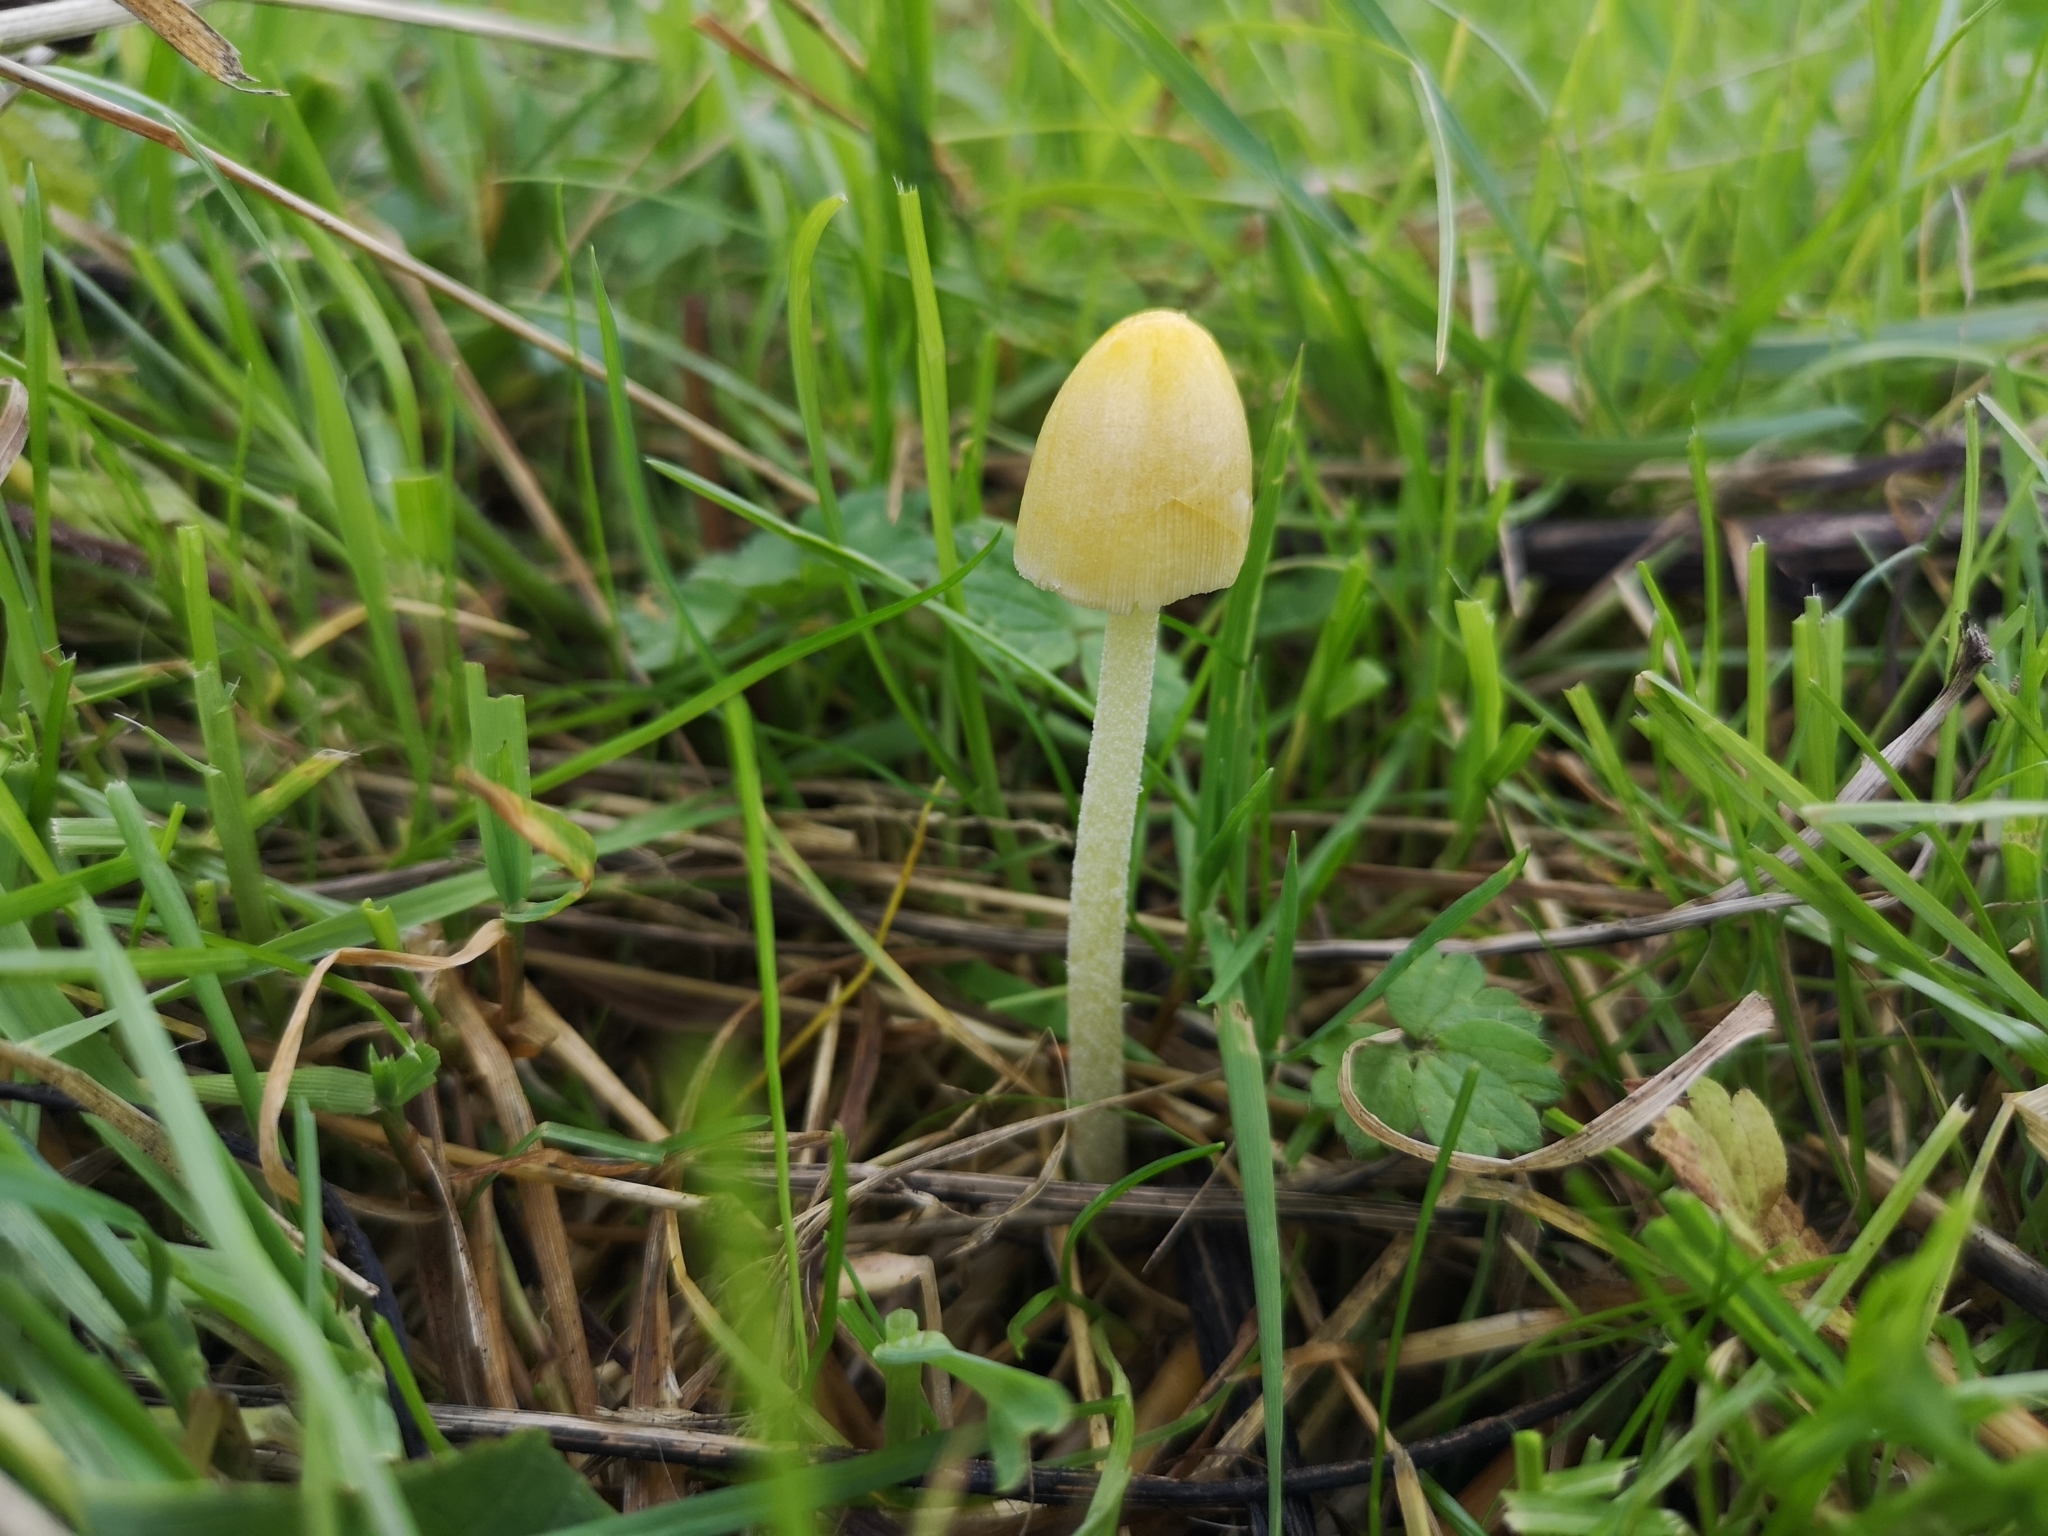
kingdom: Fungi
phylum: Basidiomycota
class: Agaricomycetes
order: Agaricales
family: Bolbitiaceae
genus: Bolbitius
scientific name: Bolbitius titubans
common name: Yellow fieldcap
